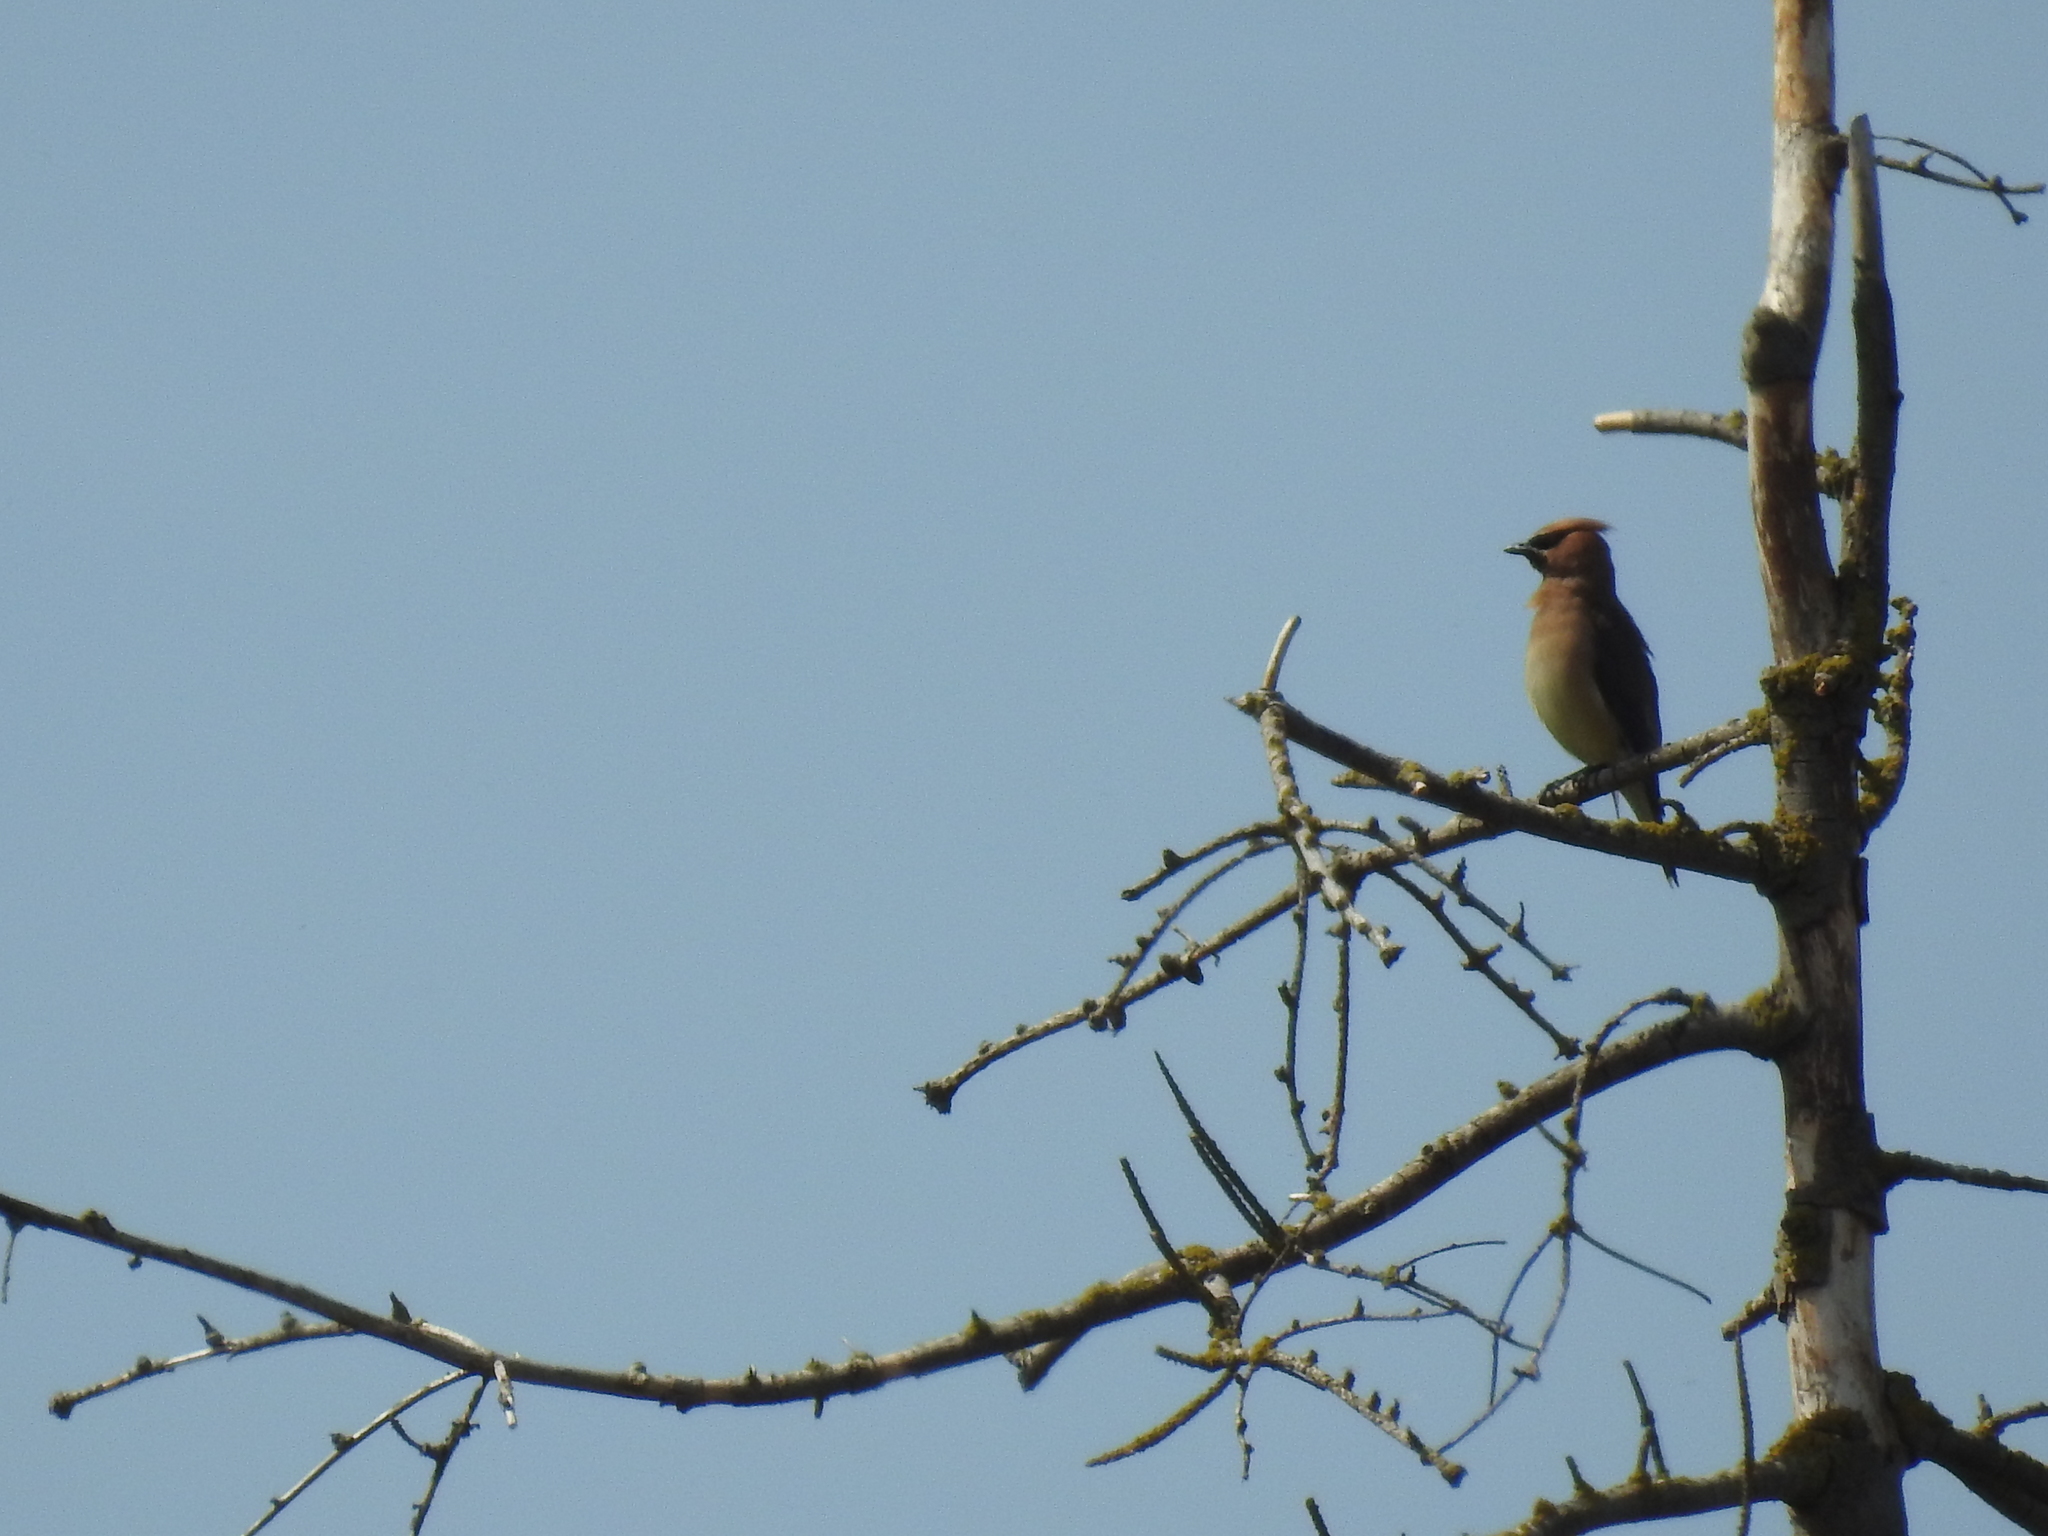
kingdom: Animalia
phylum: Chordata
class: Aves
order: Passeriformes
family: Bombycillidae
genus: Bombycilla
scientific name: Bombycilla cedrorum
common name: Cedar waxwing
